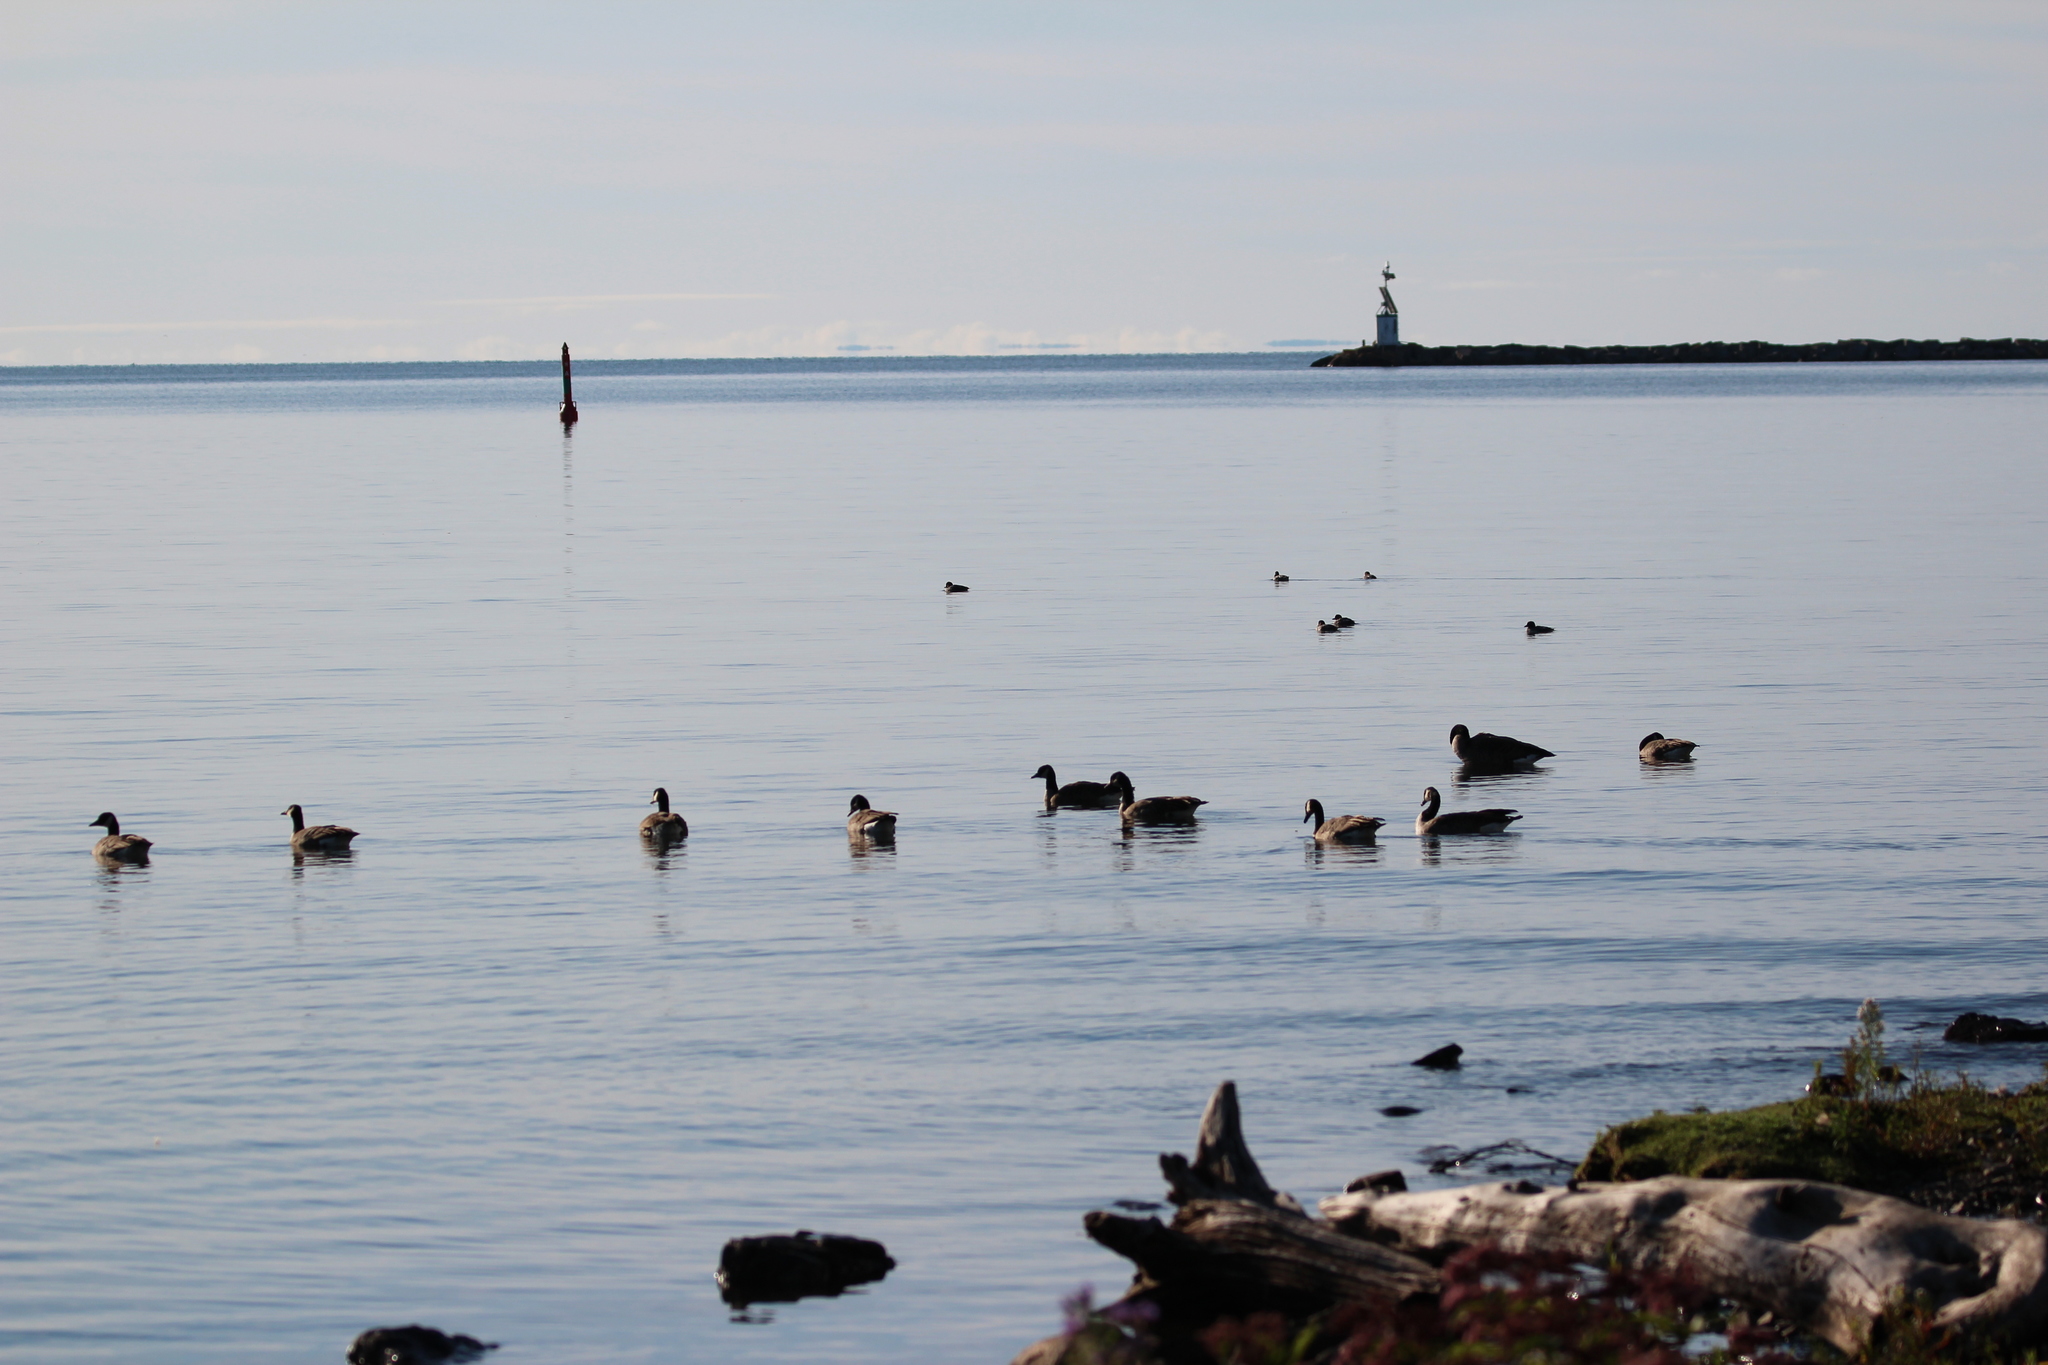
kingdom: Animalia
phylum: Chordata
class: Aves
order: Anseriformes
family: Anatidae
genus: Branta
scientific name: Branta canadensis
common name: Canada goose
